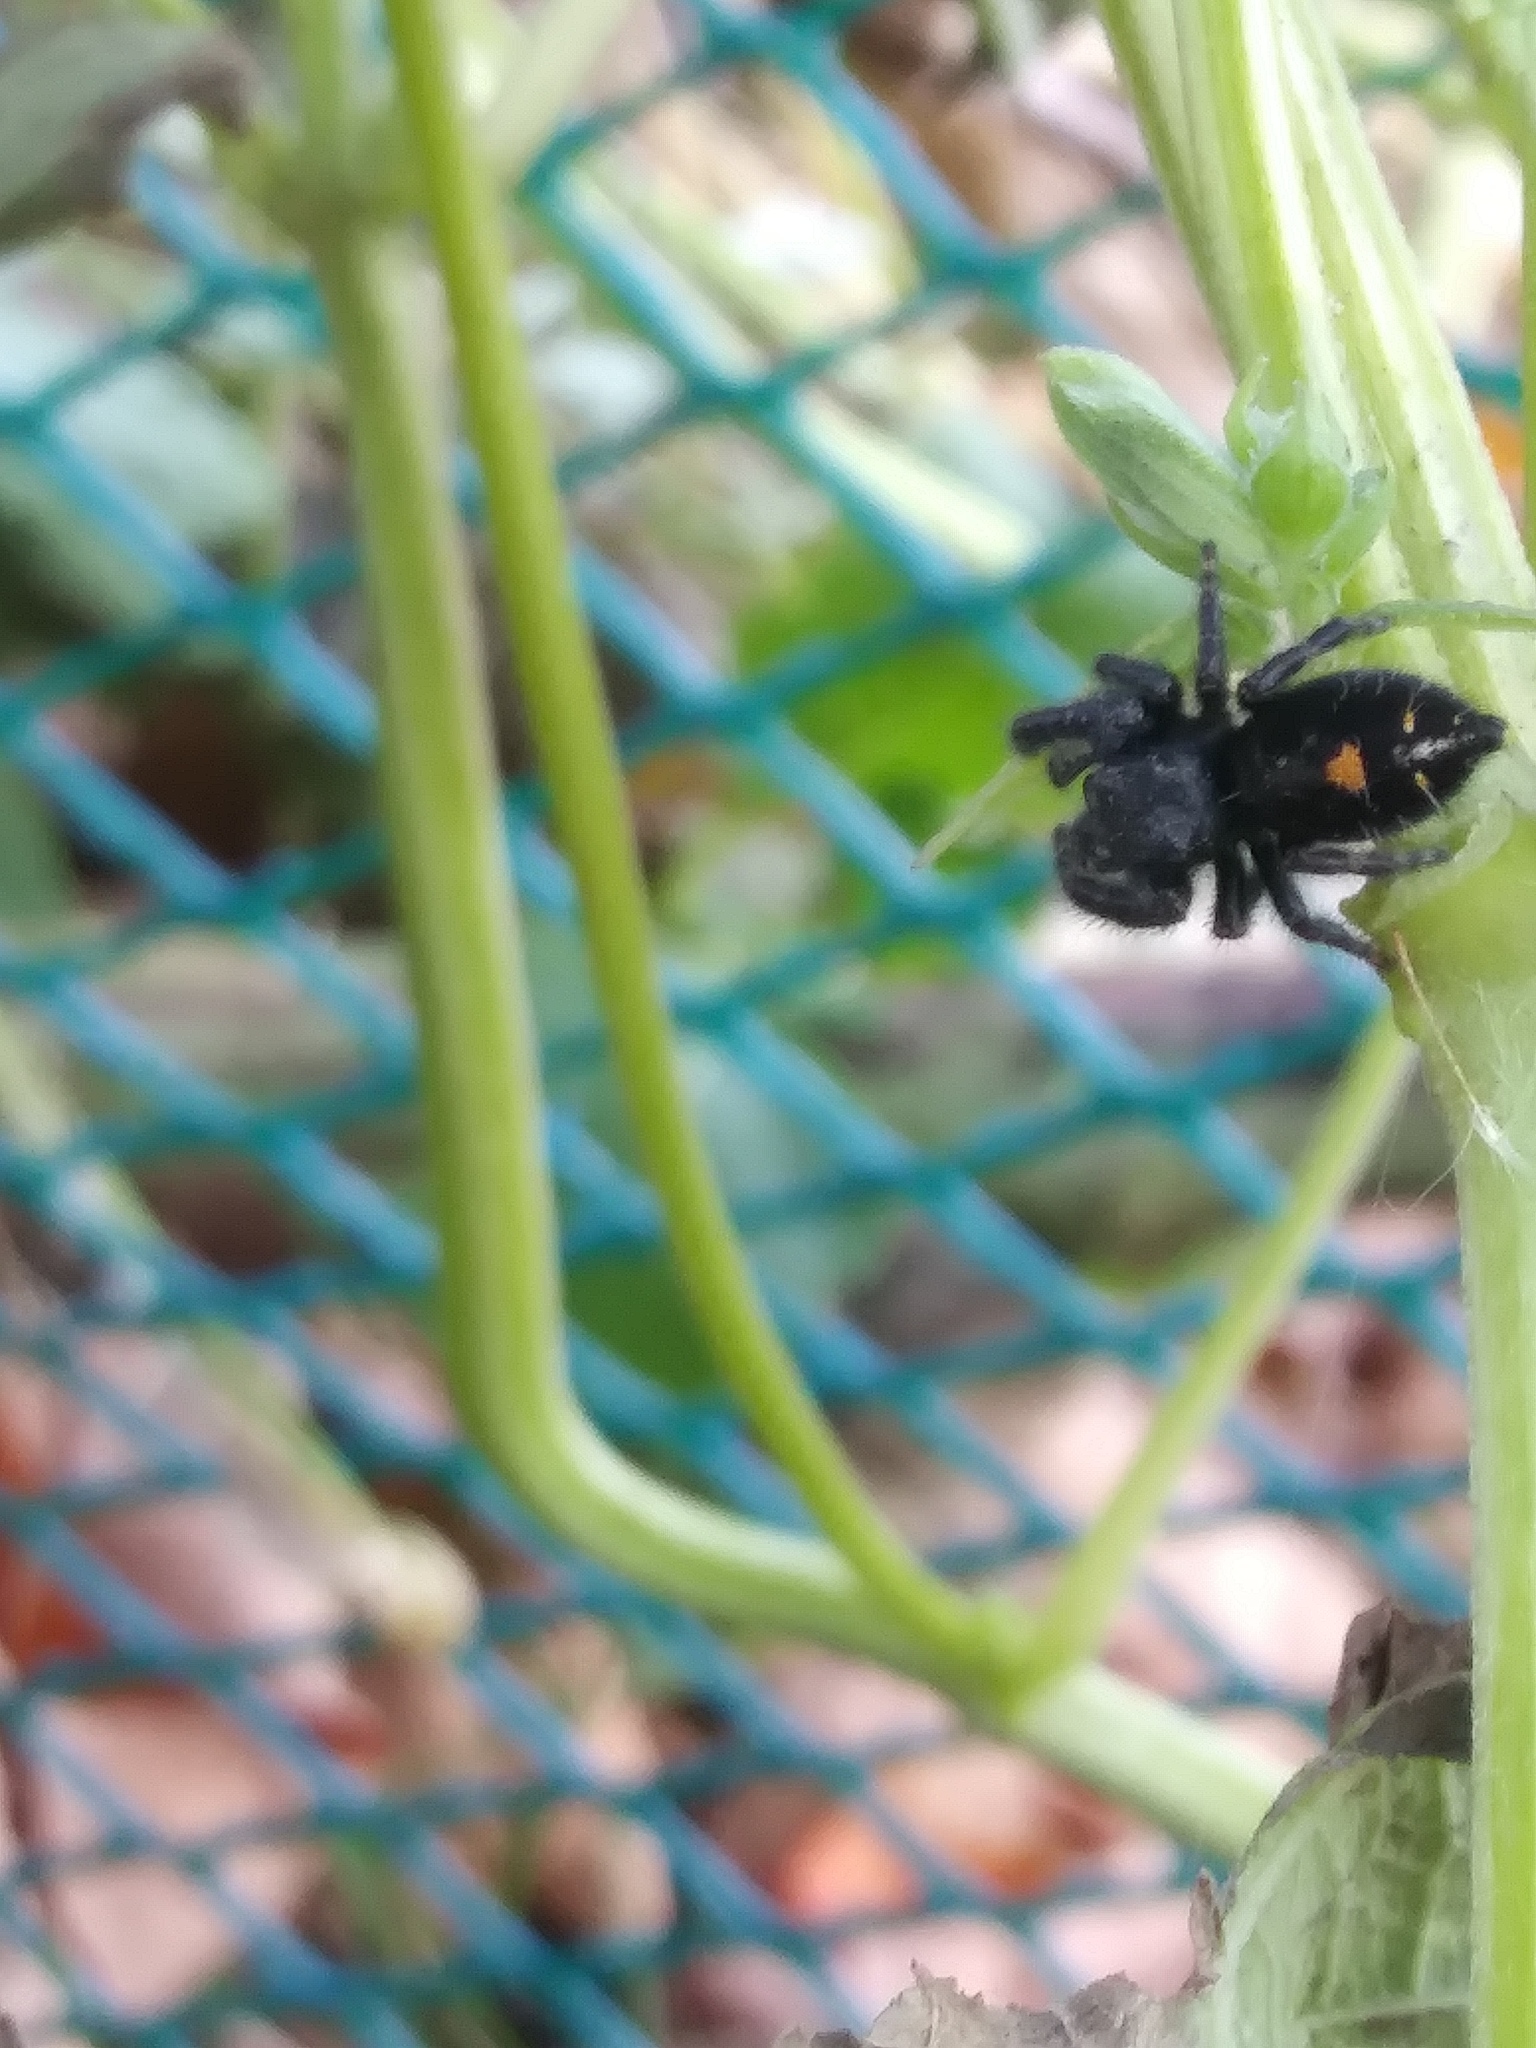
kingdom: Animalia
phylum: Arthropoda
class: Arachnida
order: Araneae
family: Salticidae
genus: Phidippus
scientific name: Phidippus audax
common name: Bold jumper
